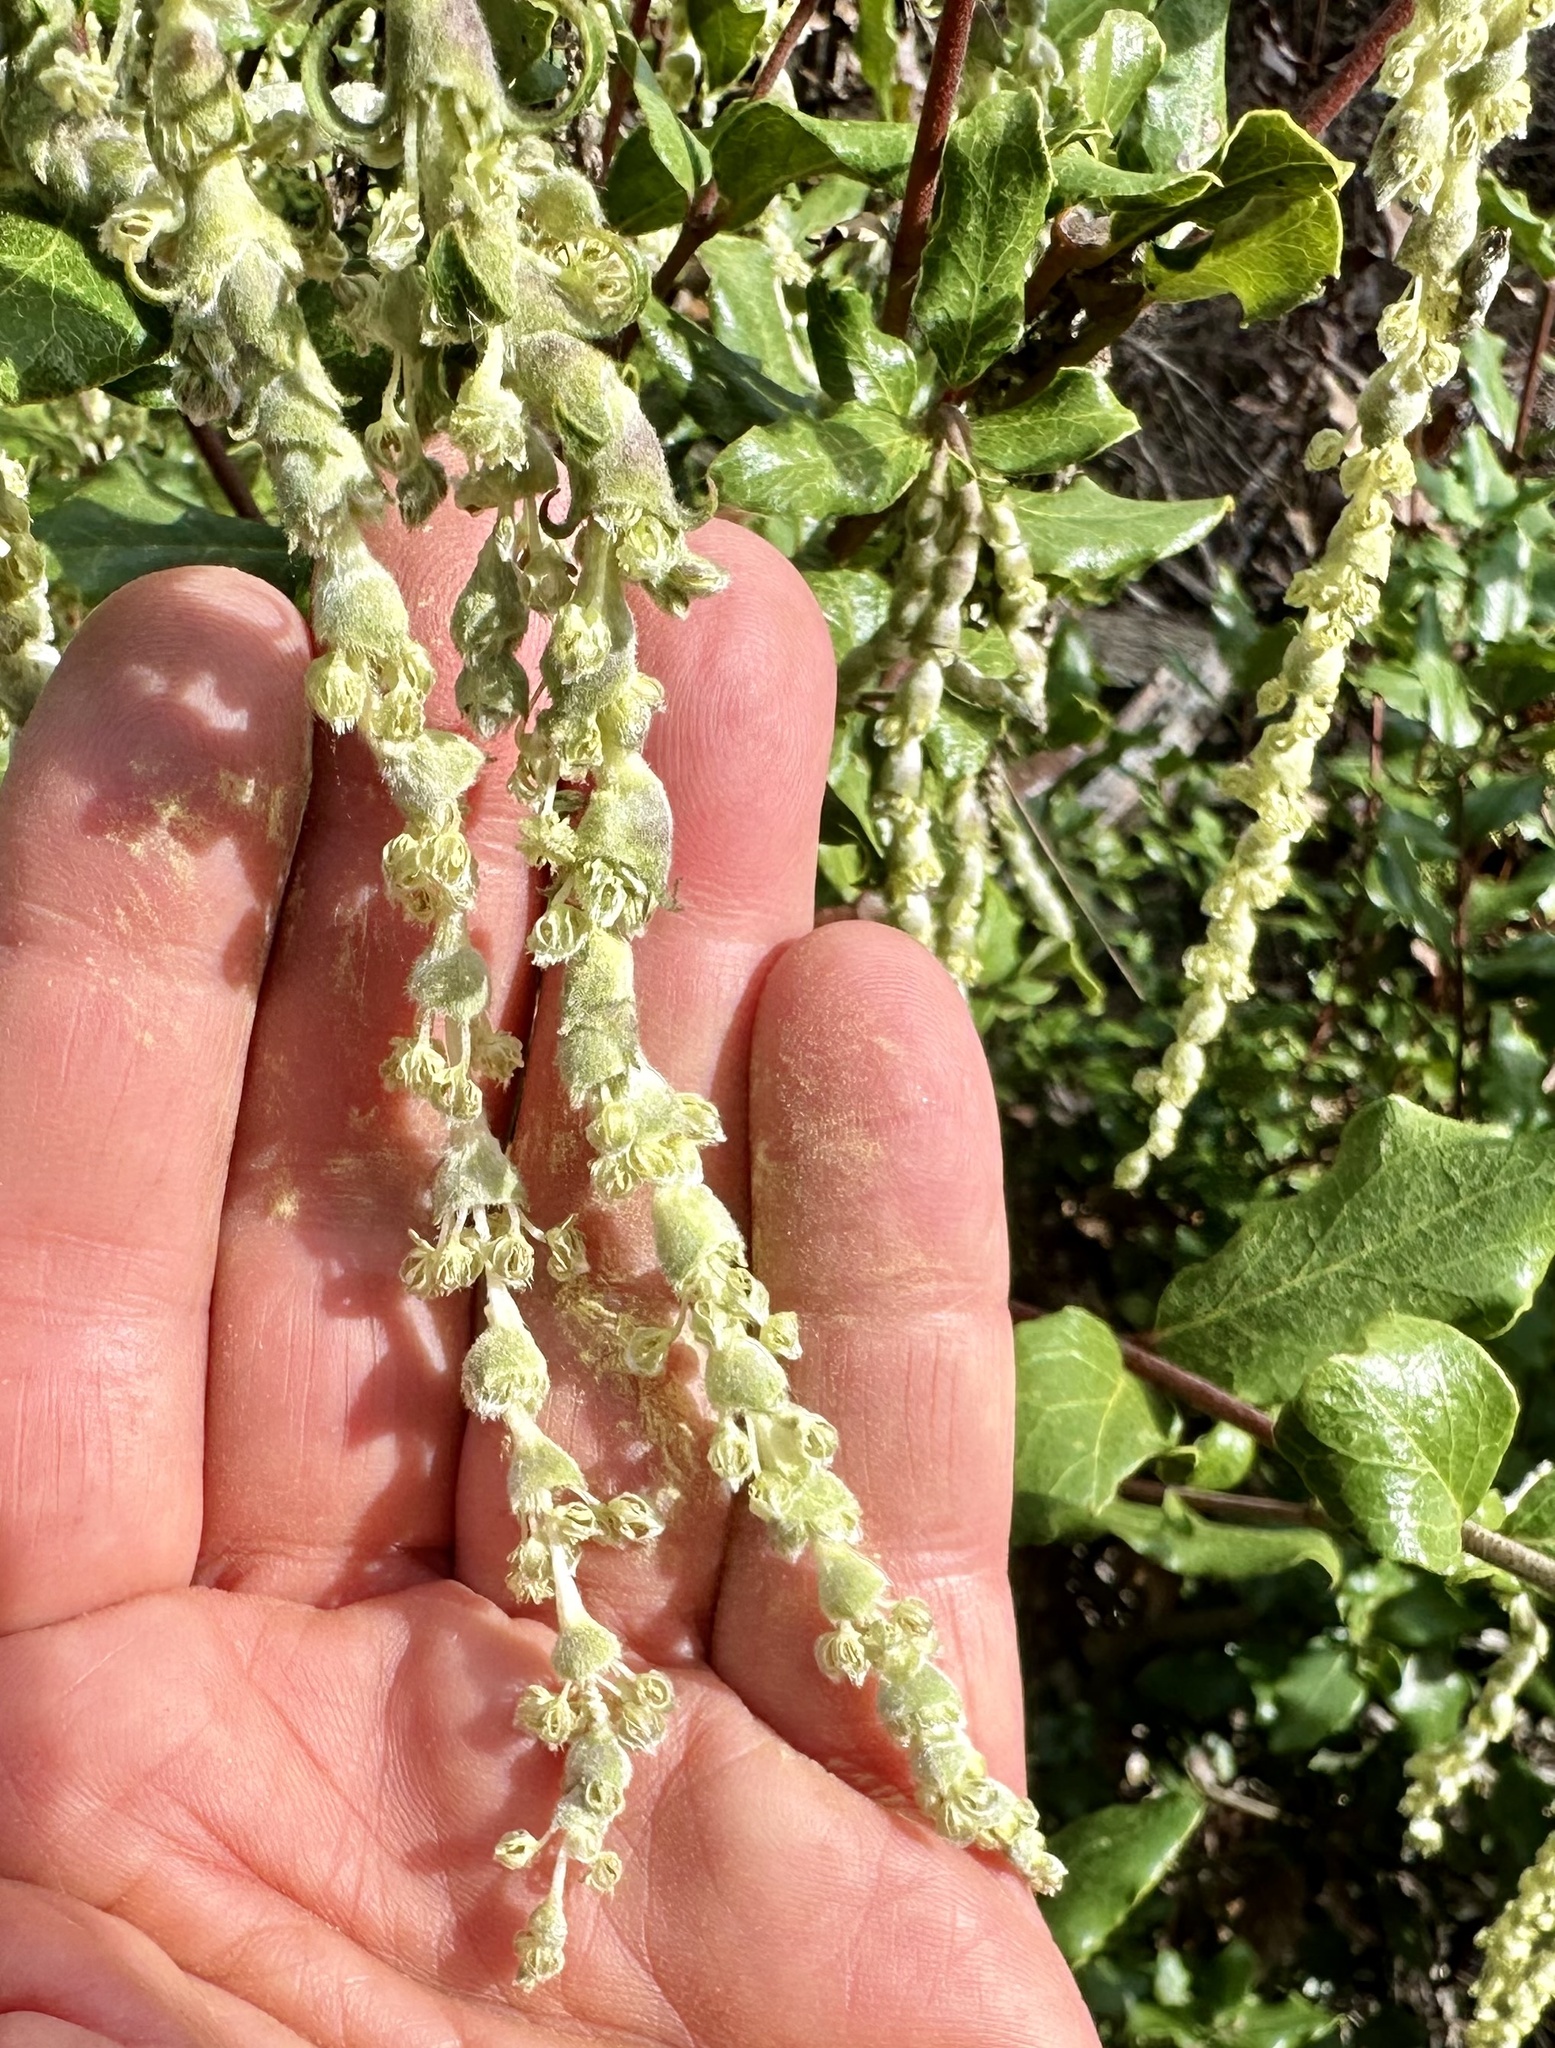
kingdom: Plantae
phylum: Tracheophyta
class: Magnoliopsida
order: Garryales
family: Garryaceae
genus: Garrya
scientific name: Garrya elliptica
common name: Silk-tassel
